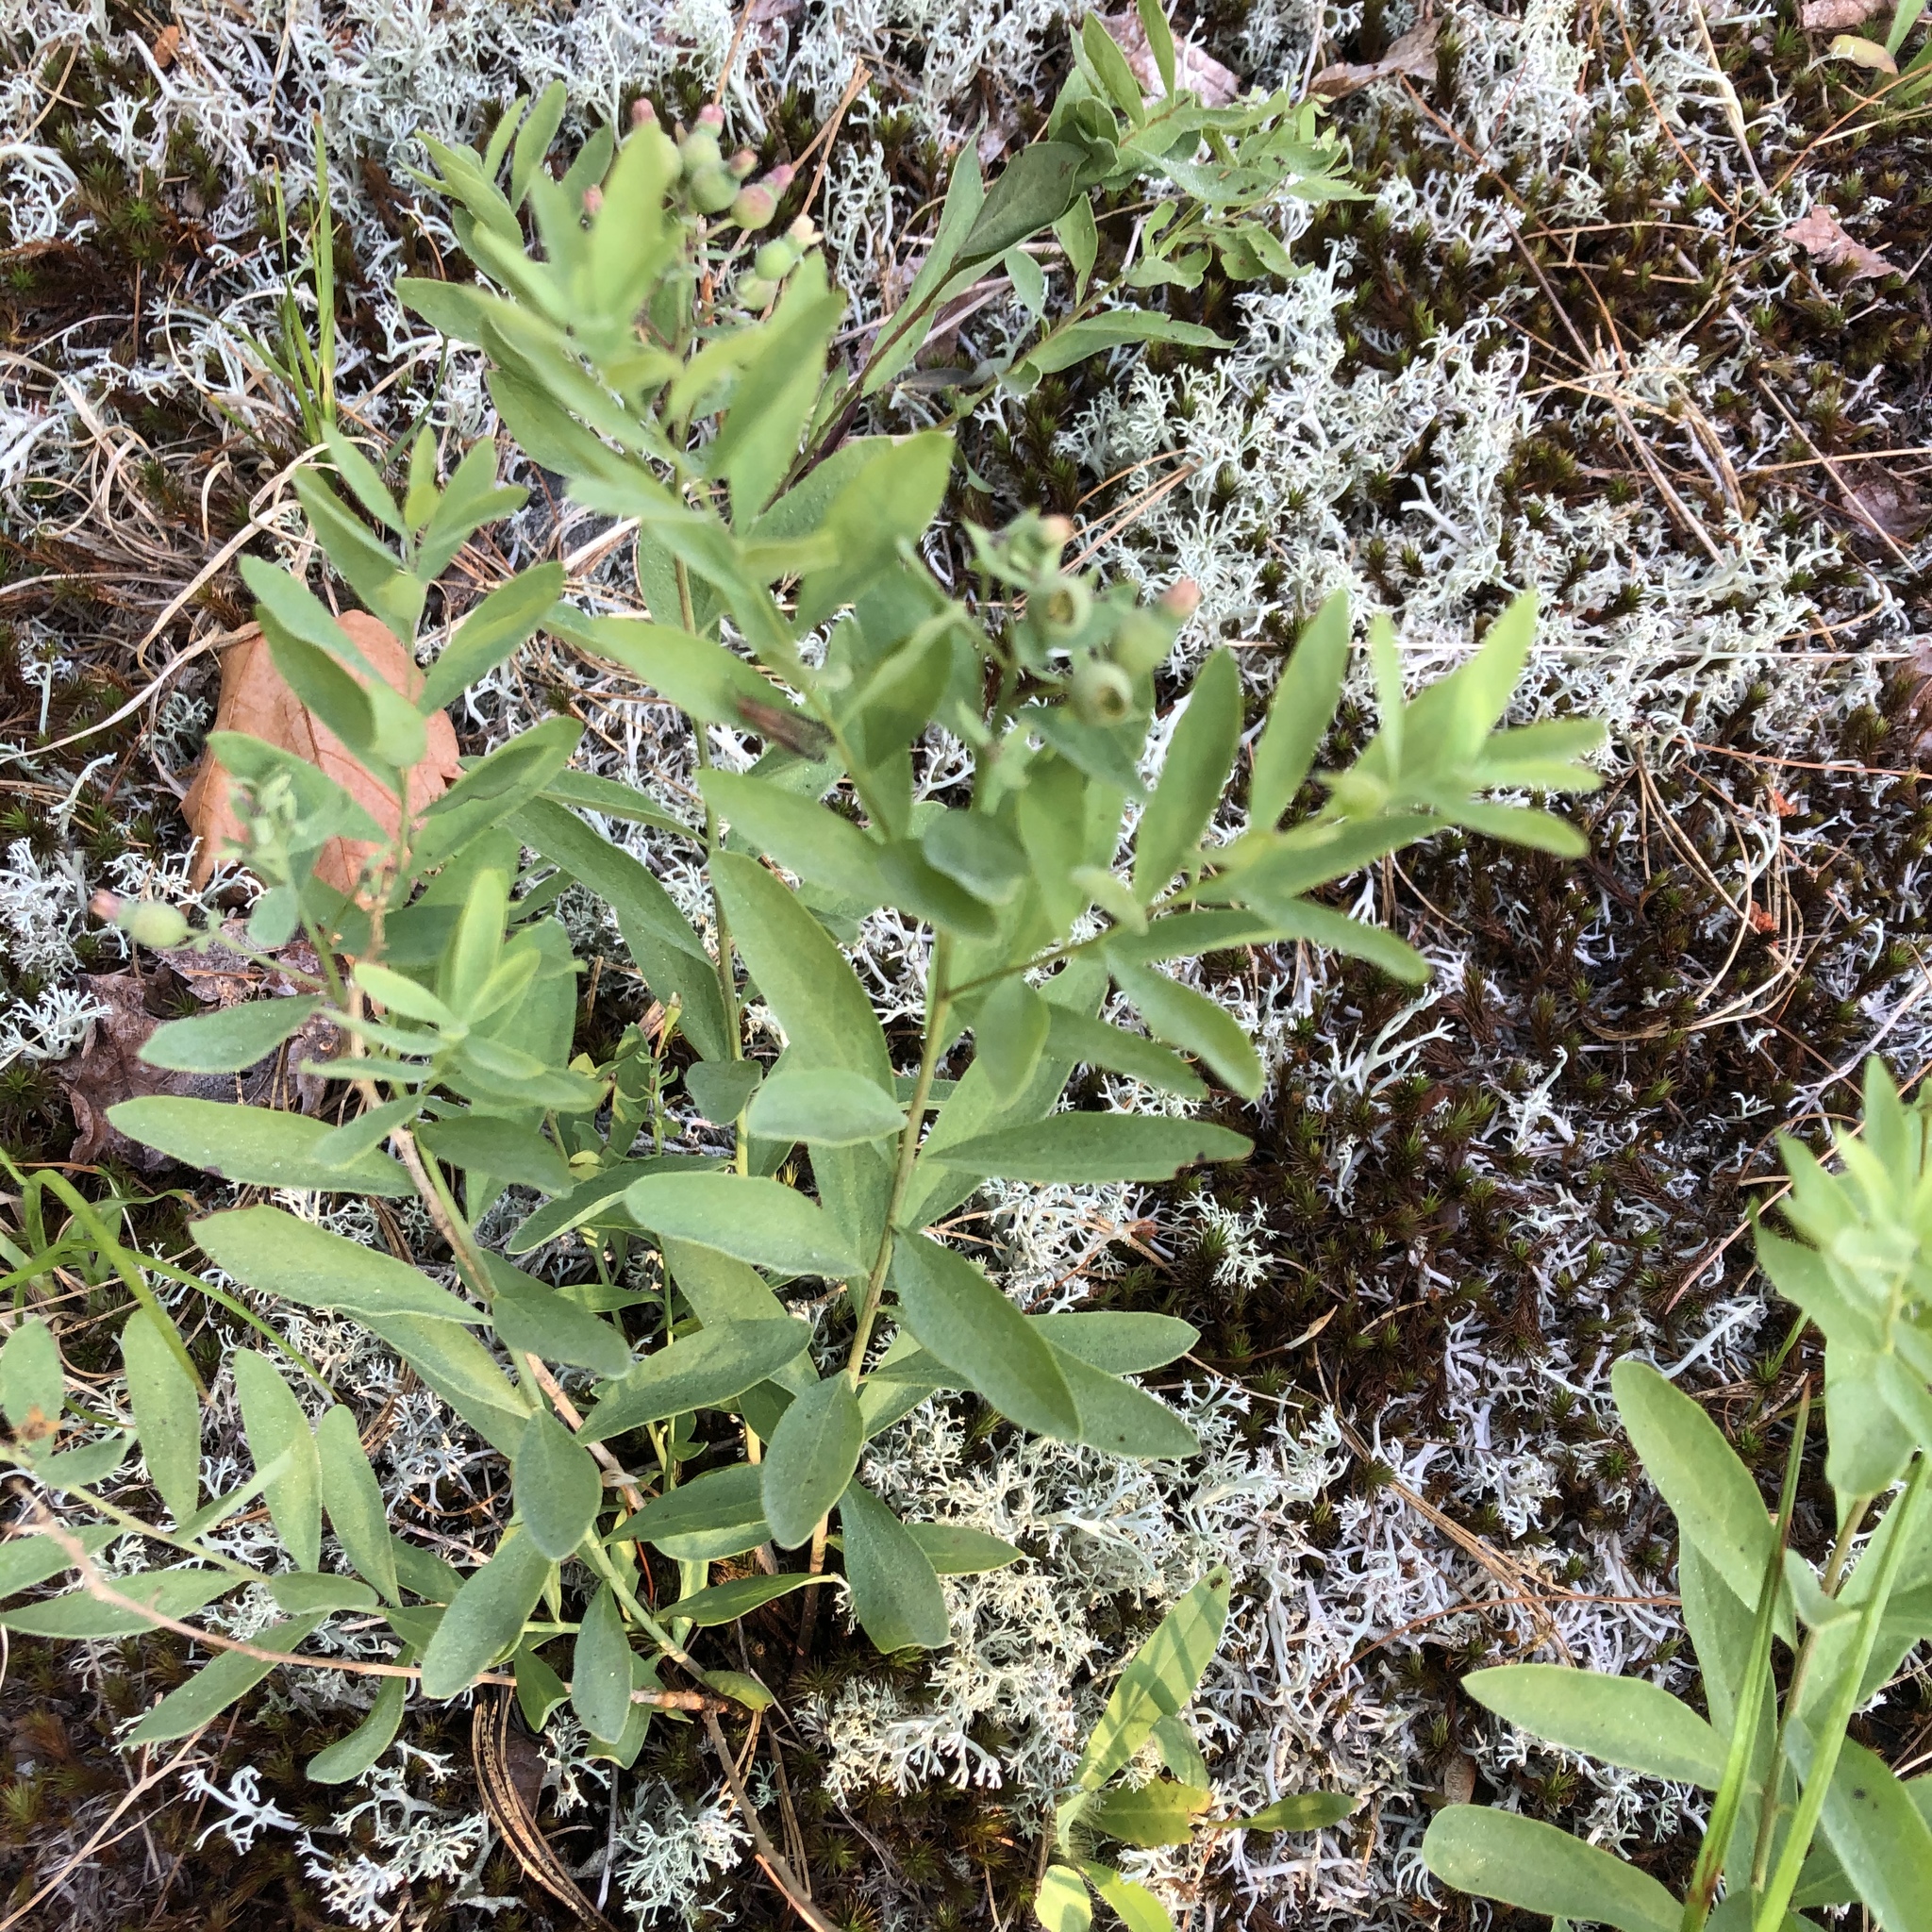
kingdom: Plantae
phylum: Tracheophyta
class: Magnoliopsida
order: Santalales
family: Comandraceae
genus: Comandra
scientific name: Comandra umbellata
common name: Bastard toadflax
